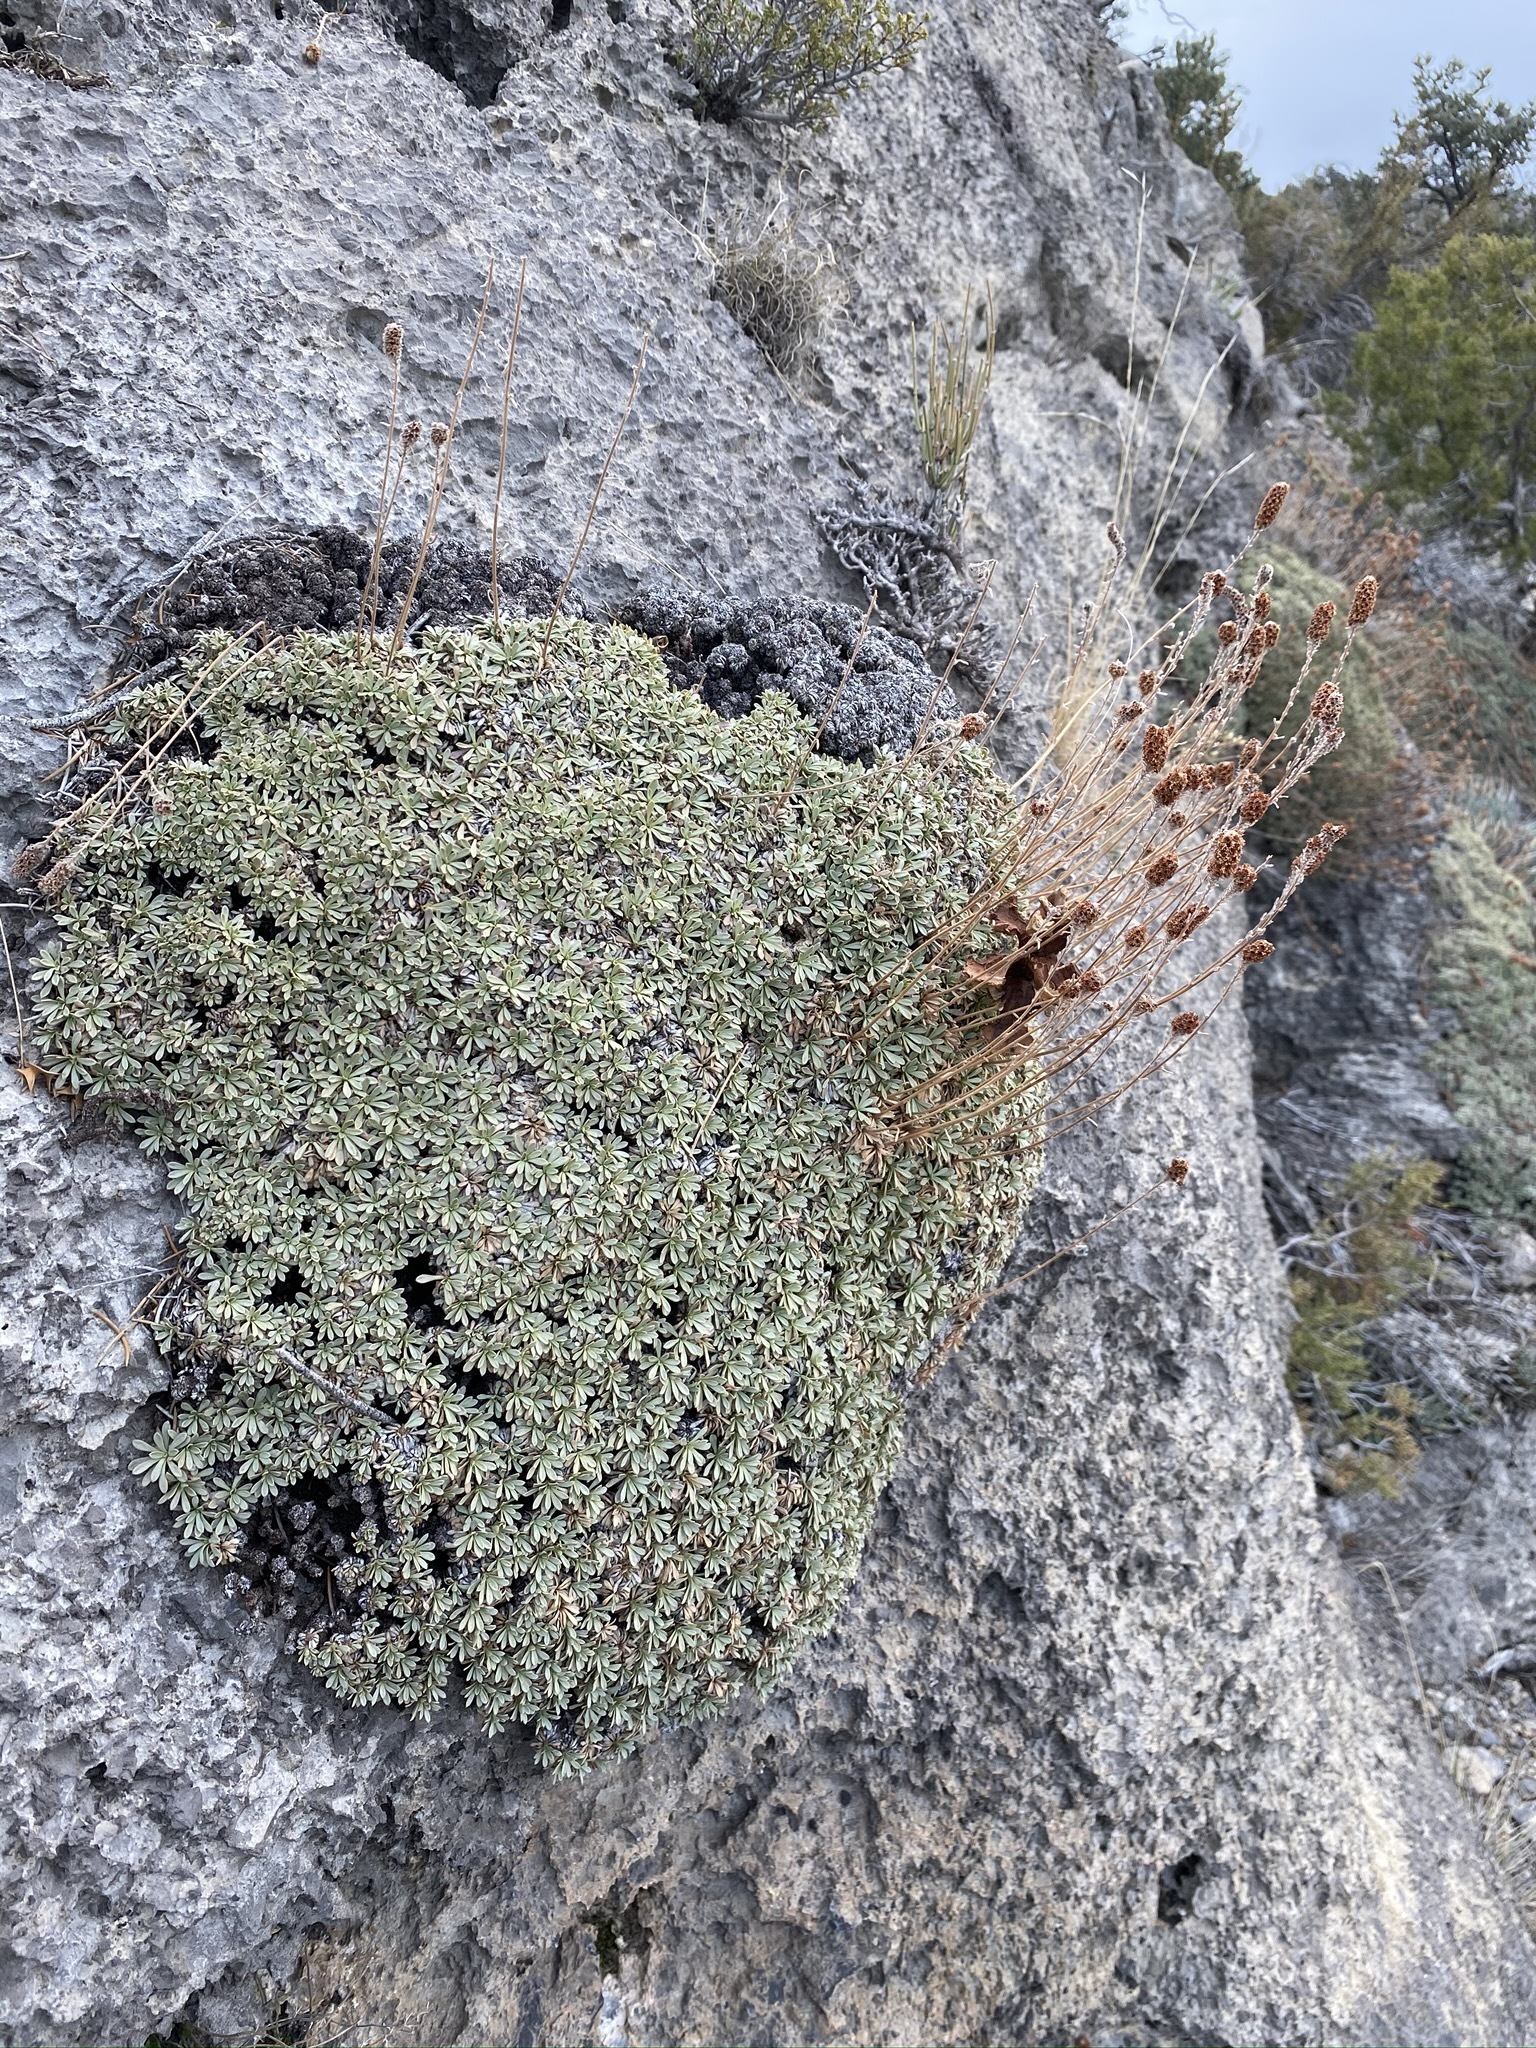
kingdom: Plantae
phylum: Tracheophyta
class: Magnoliopsida
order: Rosales
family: Rosaceae
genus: Petrophytum
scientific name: Petrophytum caespitosum
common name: Mat rockspirea
